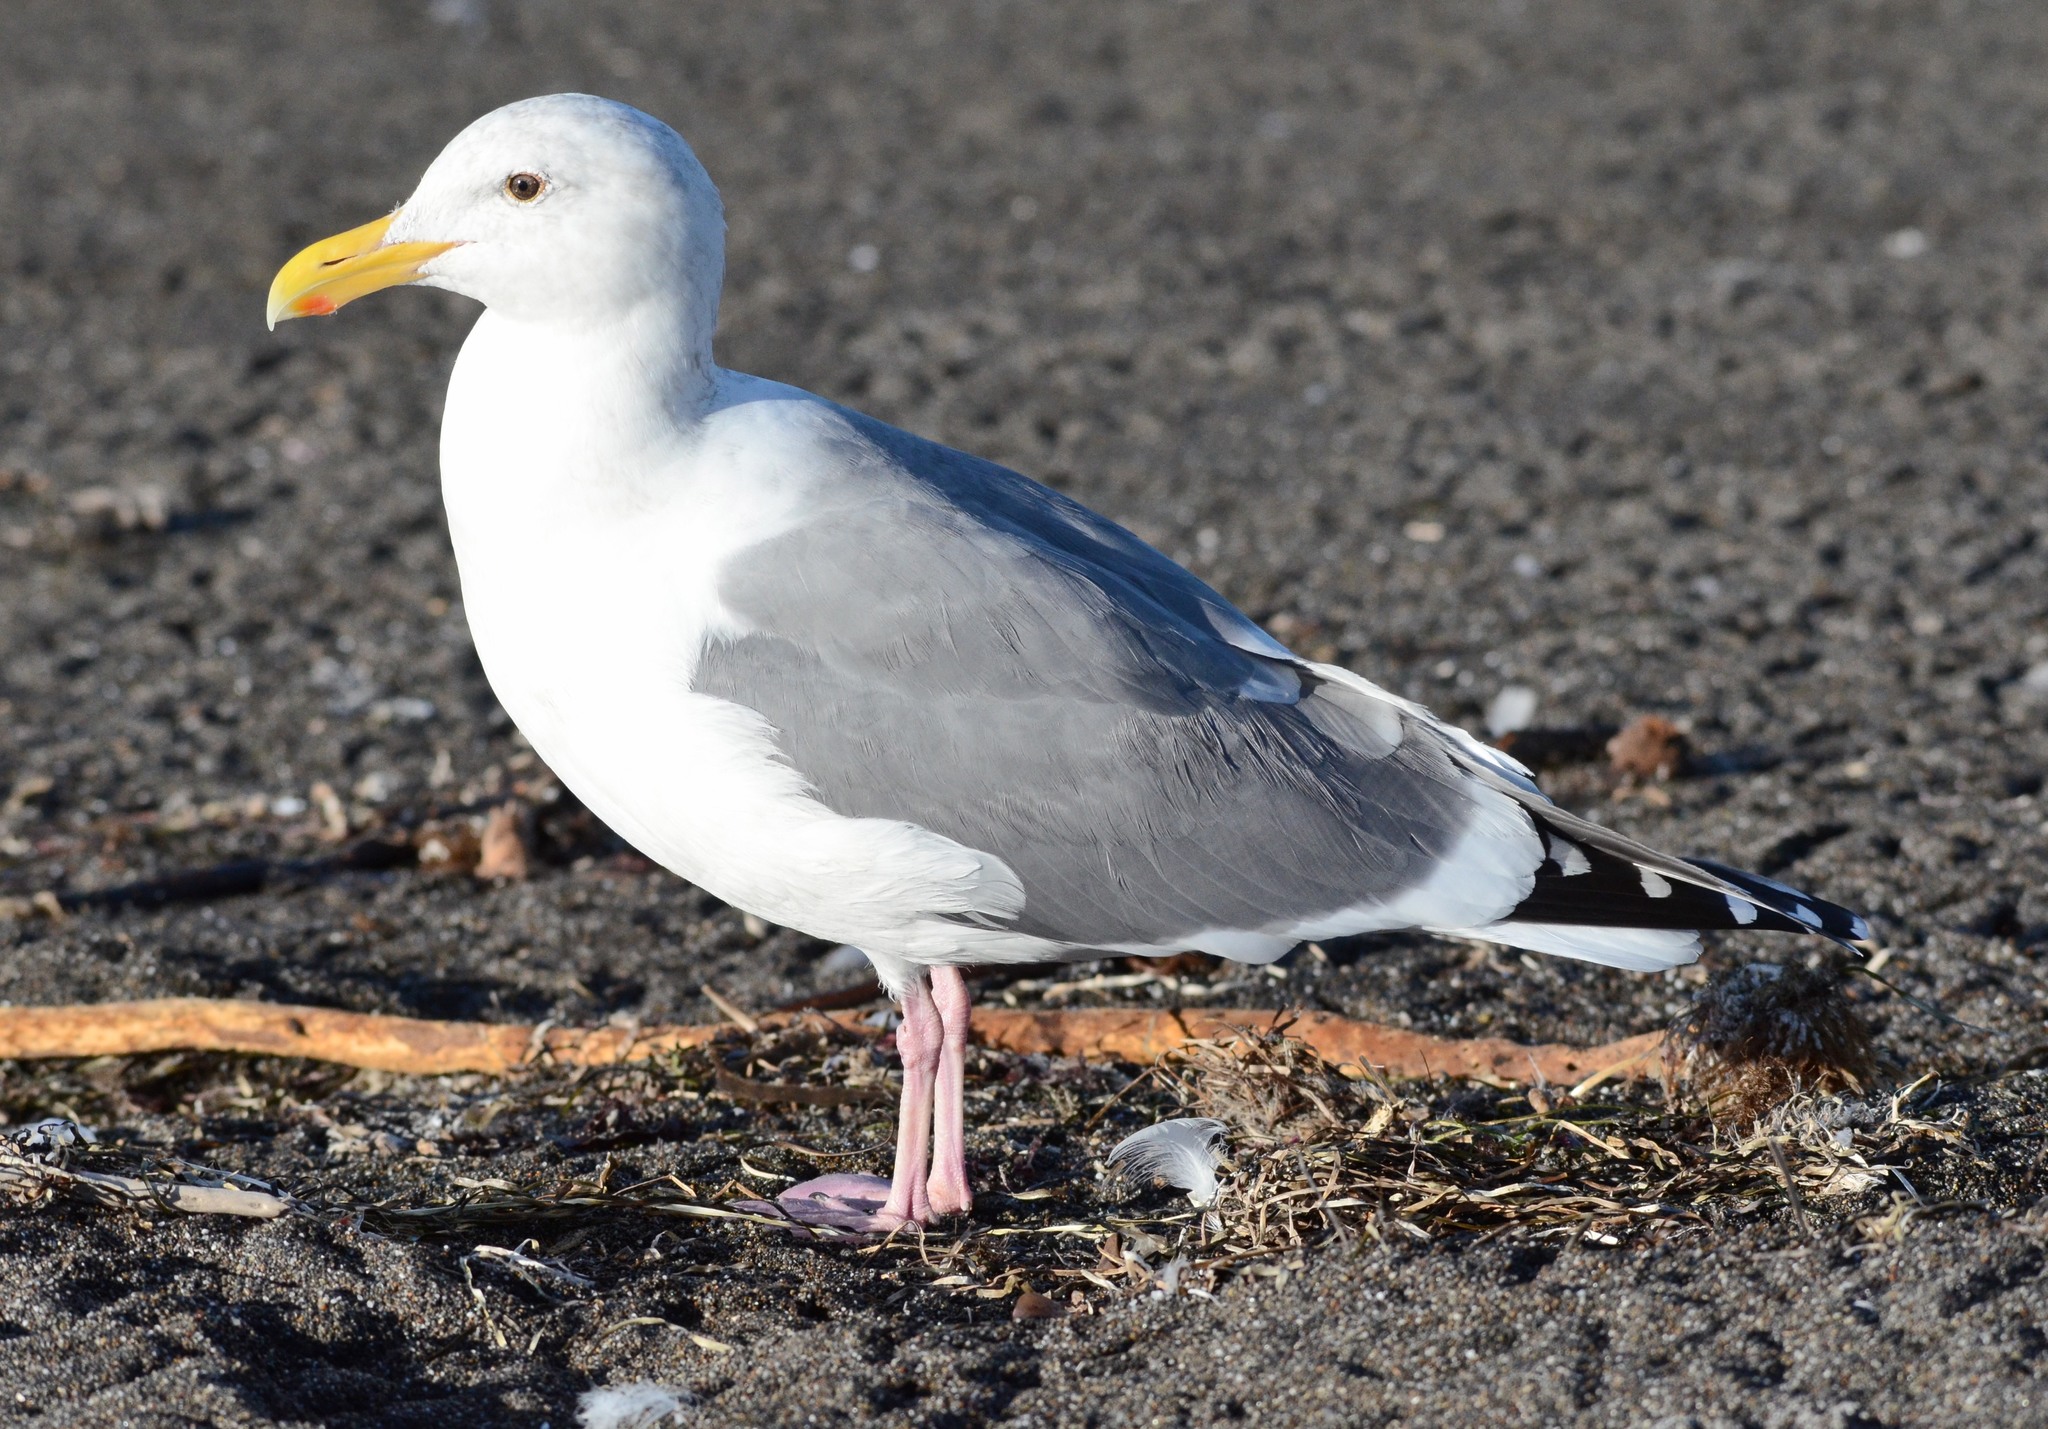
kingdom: Animalia
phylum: Chordata
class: Aves
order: Charadriiformes
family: Laridae
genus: Larus
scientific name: Larus occidentalis
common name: Western gull
